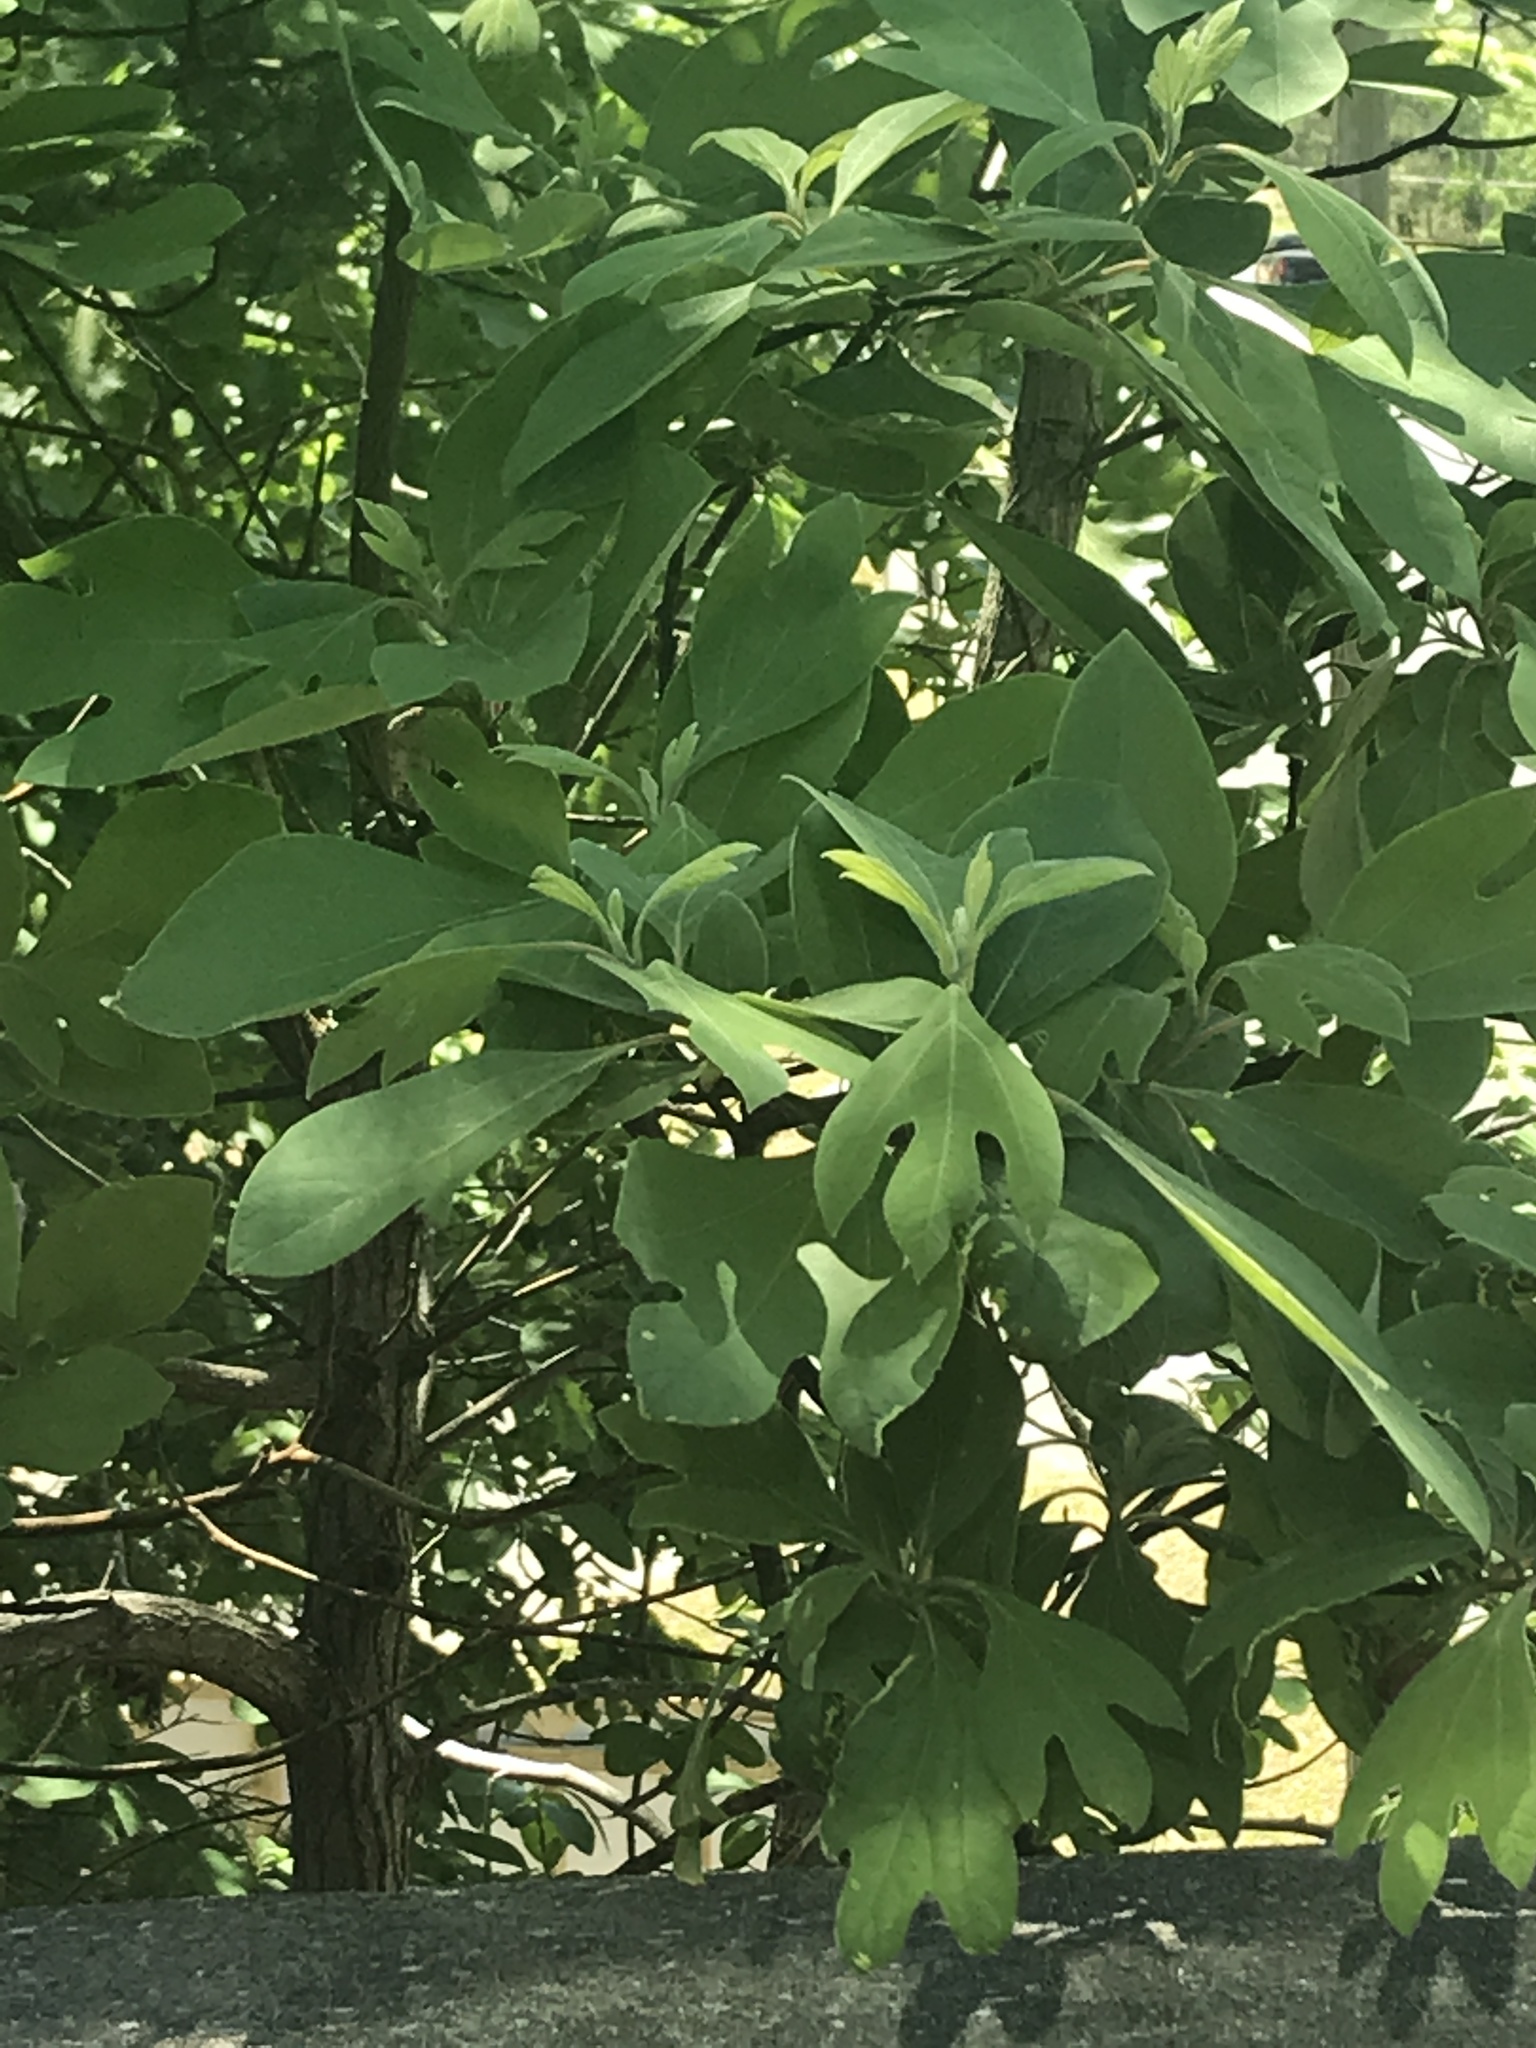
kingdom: Plantae
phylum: Tracheophyta
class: Magnoliopsida
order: Laurales
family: Lauraceae
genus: Sassafras
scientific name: Sassafras albidum
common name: Sassafras
